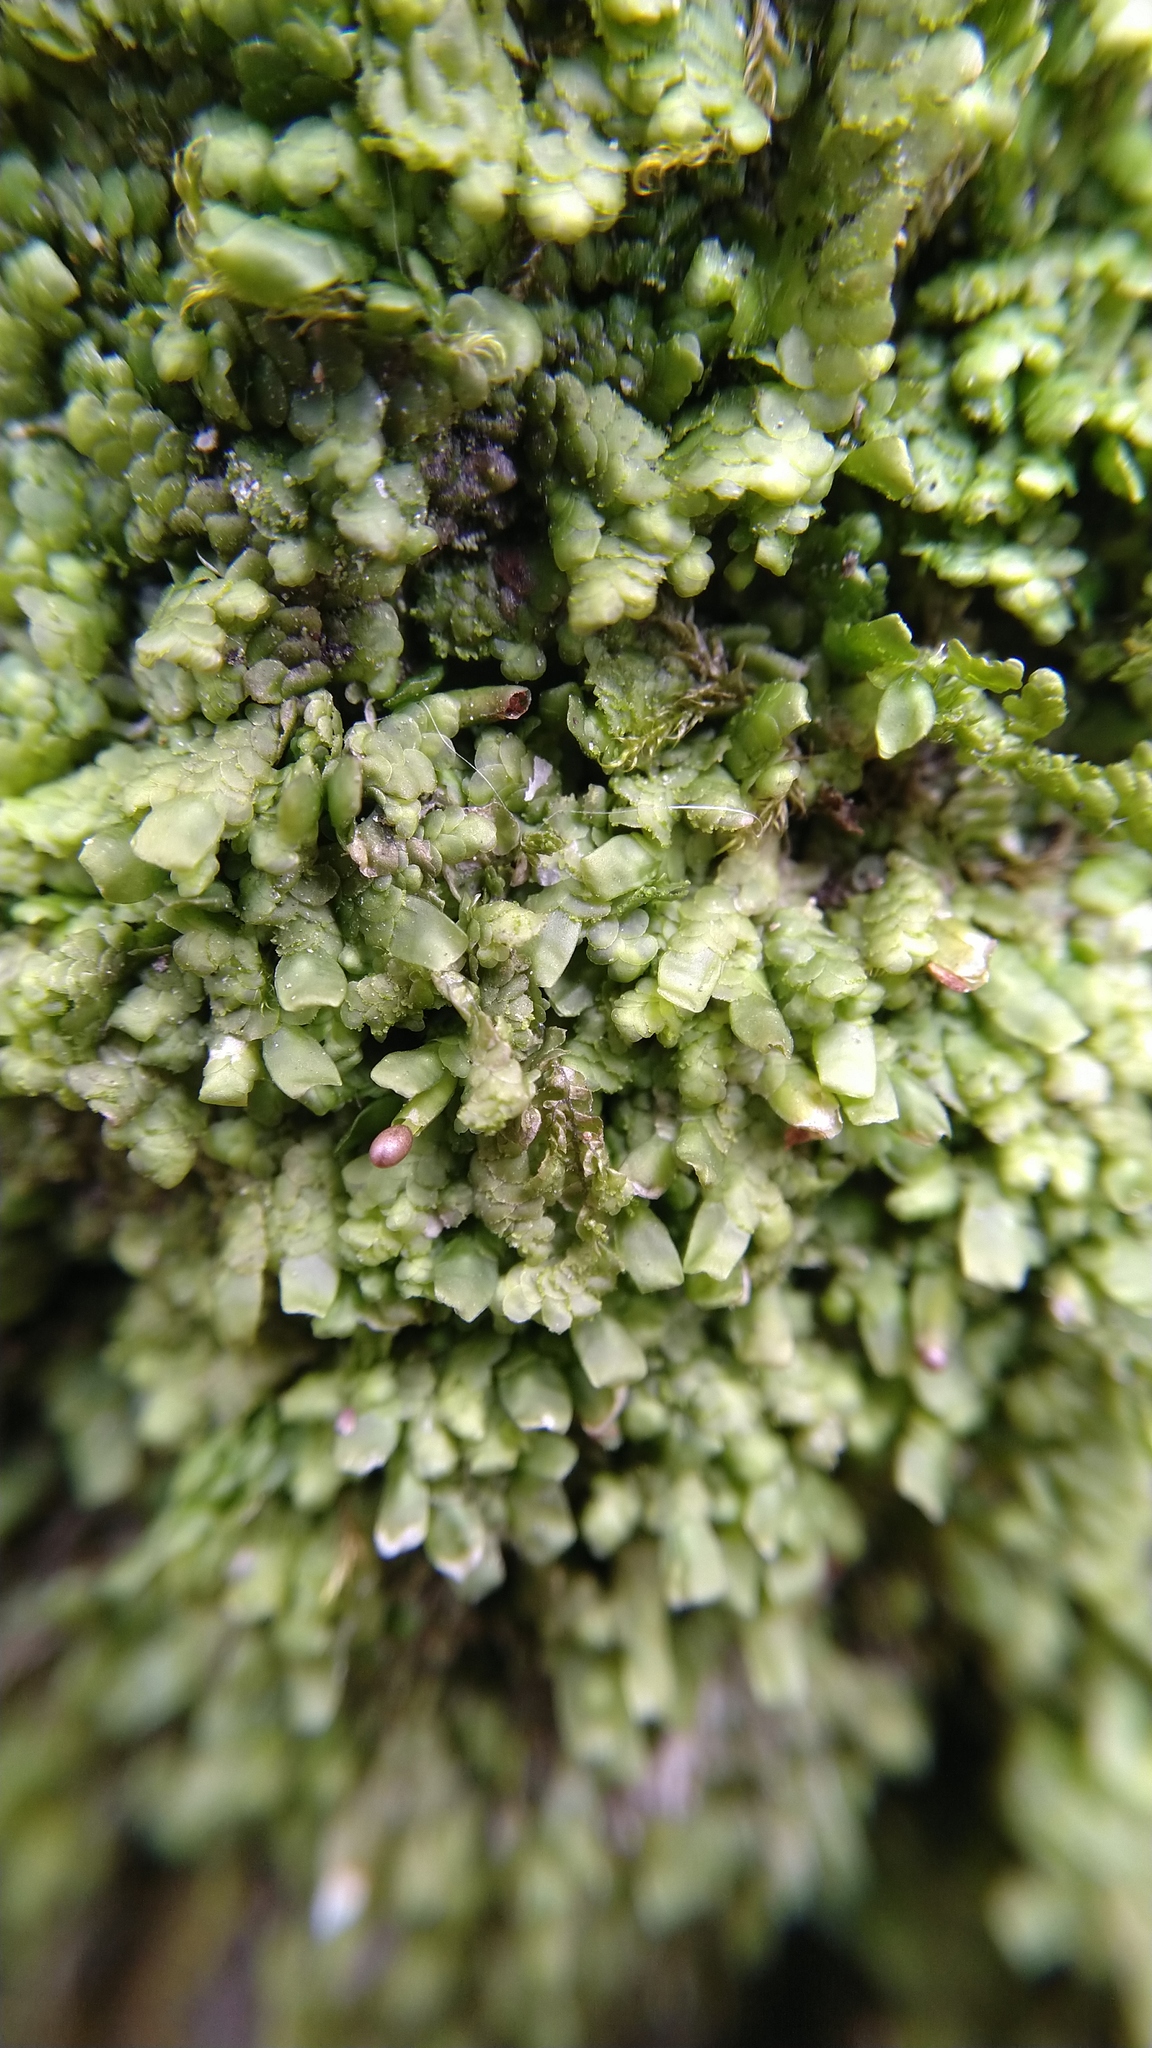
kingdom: Plantae
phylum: Marchantiophyta
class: Jungermanniopsida
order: Porellales
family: Radulaceae
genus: Radula
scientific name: Radula complanata
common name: Flat-leaved scalewort
